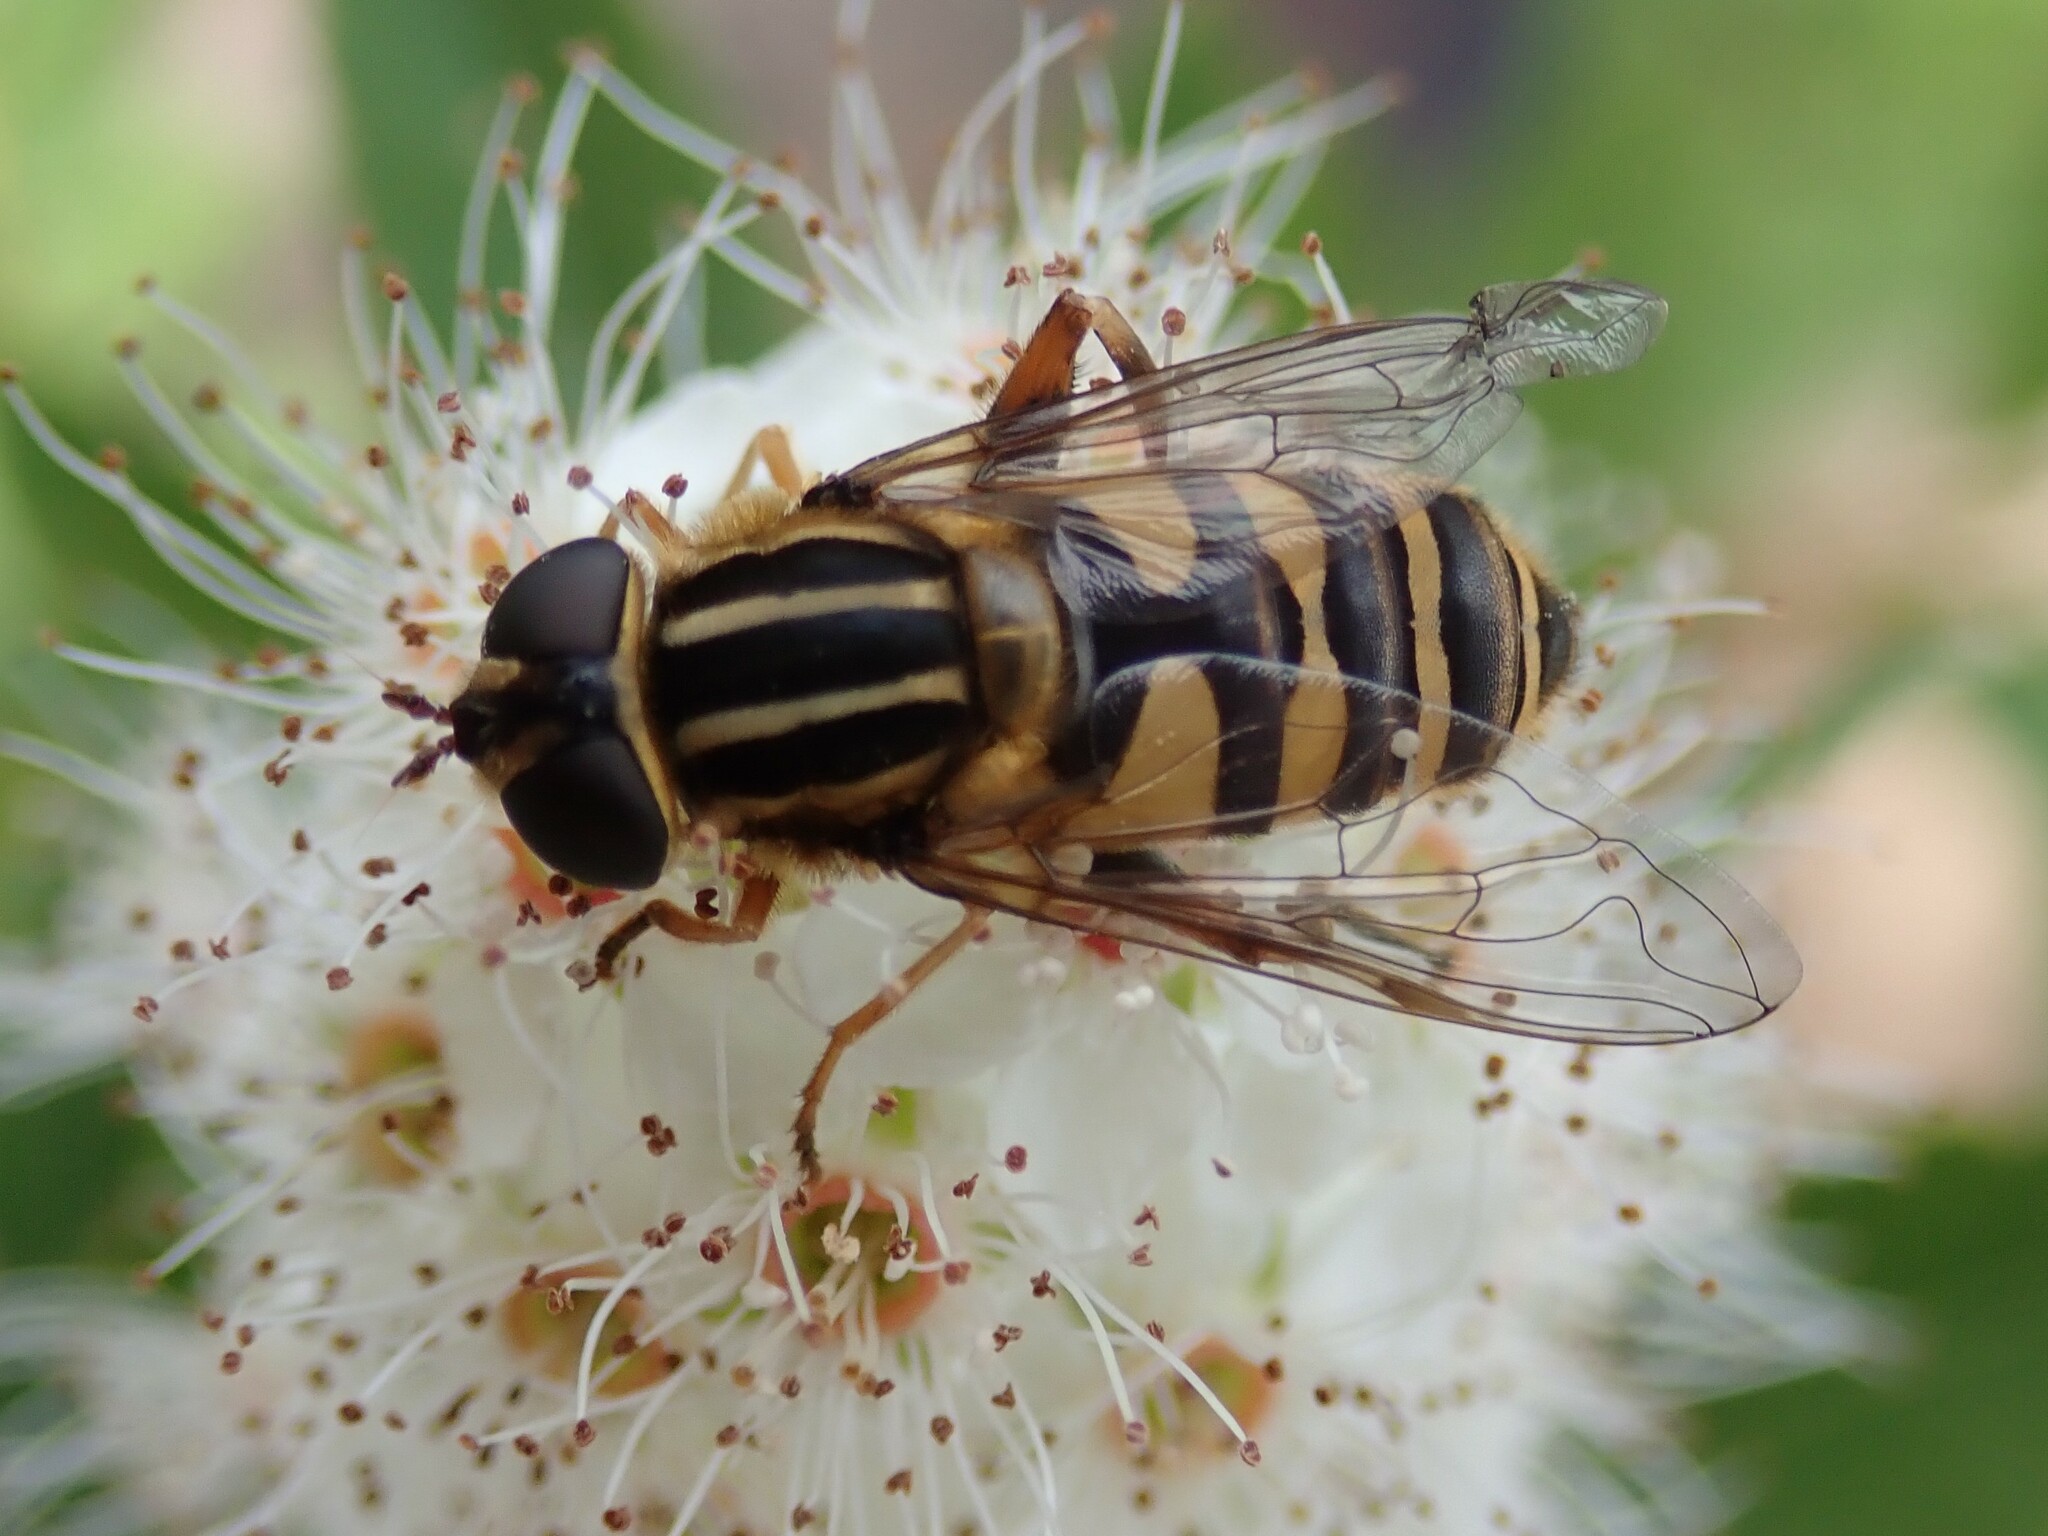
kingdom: Animalia
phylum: Arthropoda
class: Insecta
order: Diptera
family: Syrphidae
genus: Helophilus
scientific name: Helophilus fasciatus
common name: Narrow-headed marsh fly
